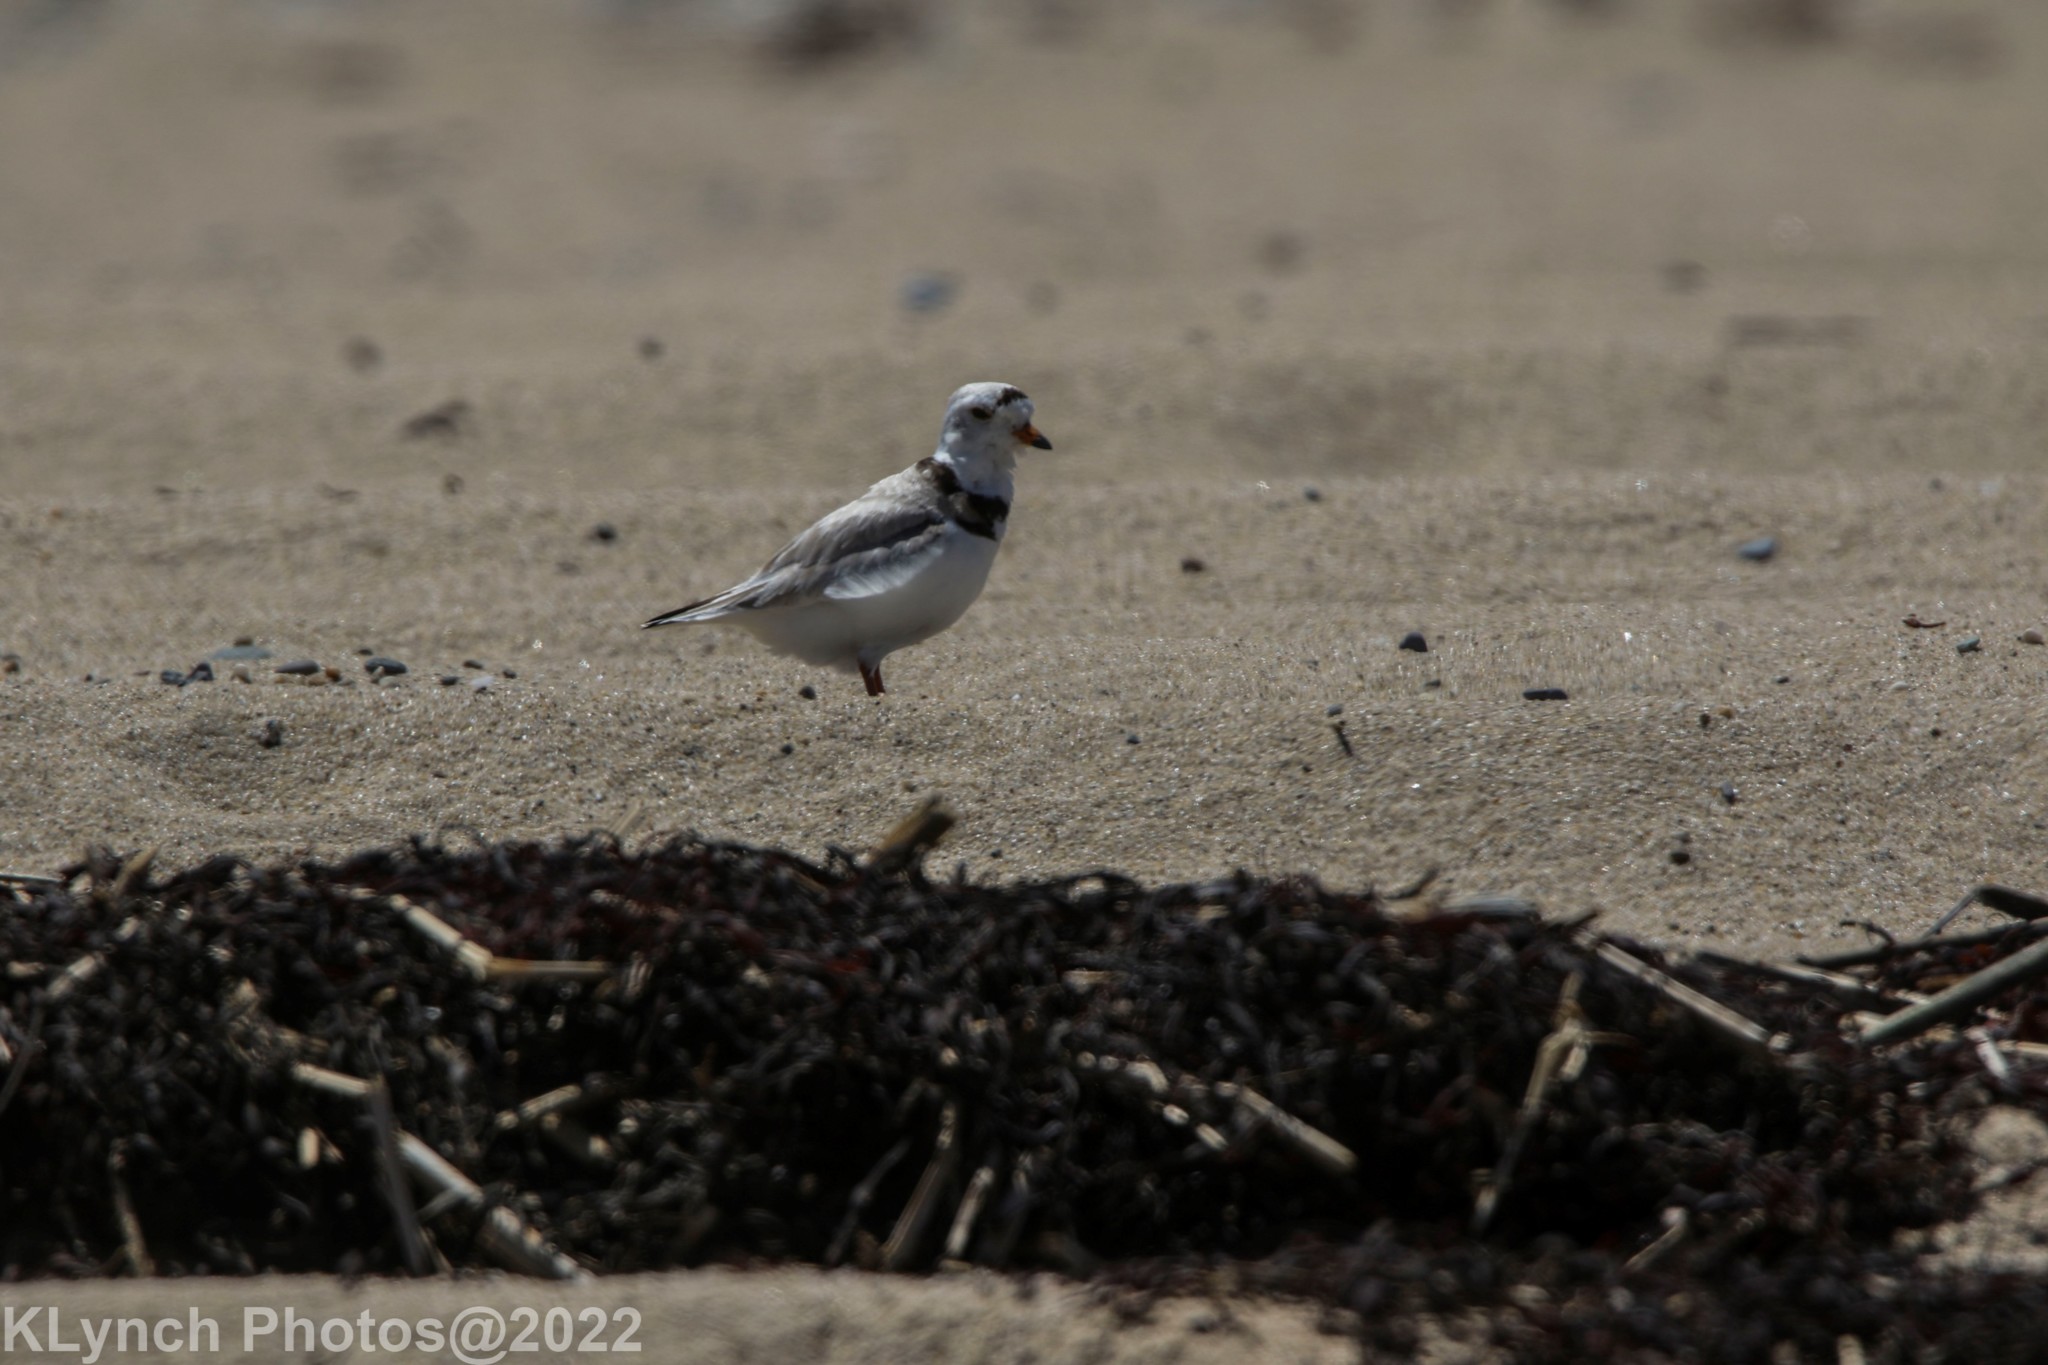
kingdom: Animalia
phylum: Chordata
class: Aves
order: Charadriiformes
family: Charadriidae
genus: Charadrius
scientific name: Charadrius melodus
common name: Piping plover
